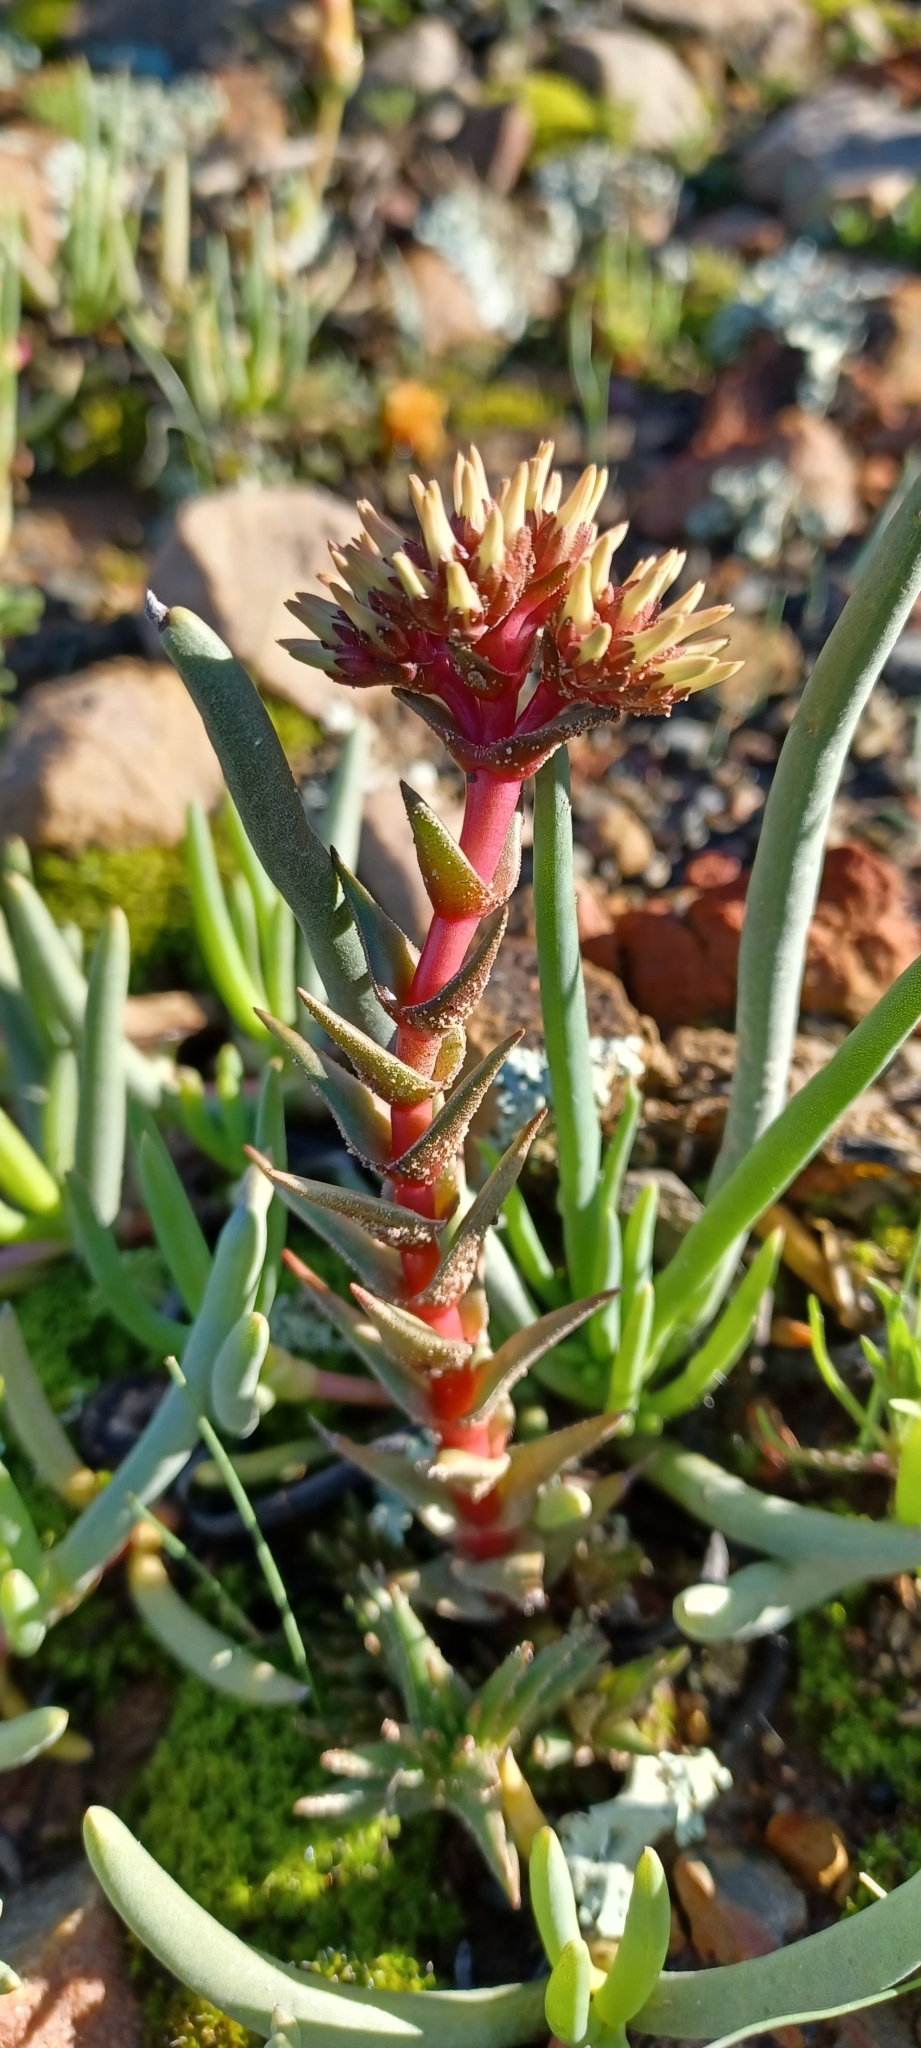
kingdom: Plantae
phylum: Tracheophyta
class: Magnoliopsida
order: Saxifragales
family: Crassulaceae
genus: Crassula
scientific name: Crassula alpestris
